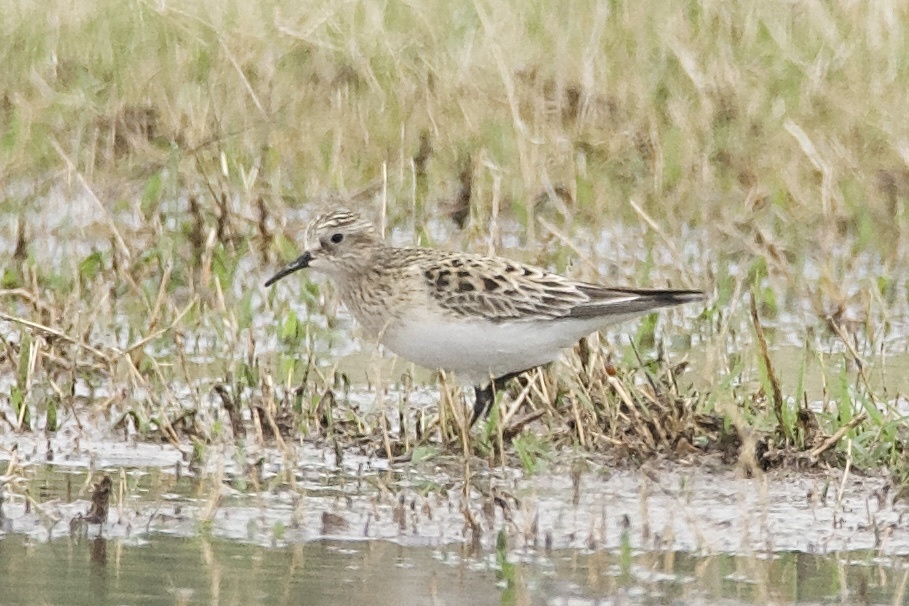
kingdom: Animalia
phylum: Chordata
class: Aves
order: Charadriiformes
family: Scolopacidae
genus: Calidris
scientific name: Calidris bairdii
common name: Baird's sandpiper
